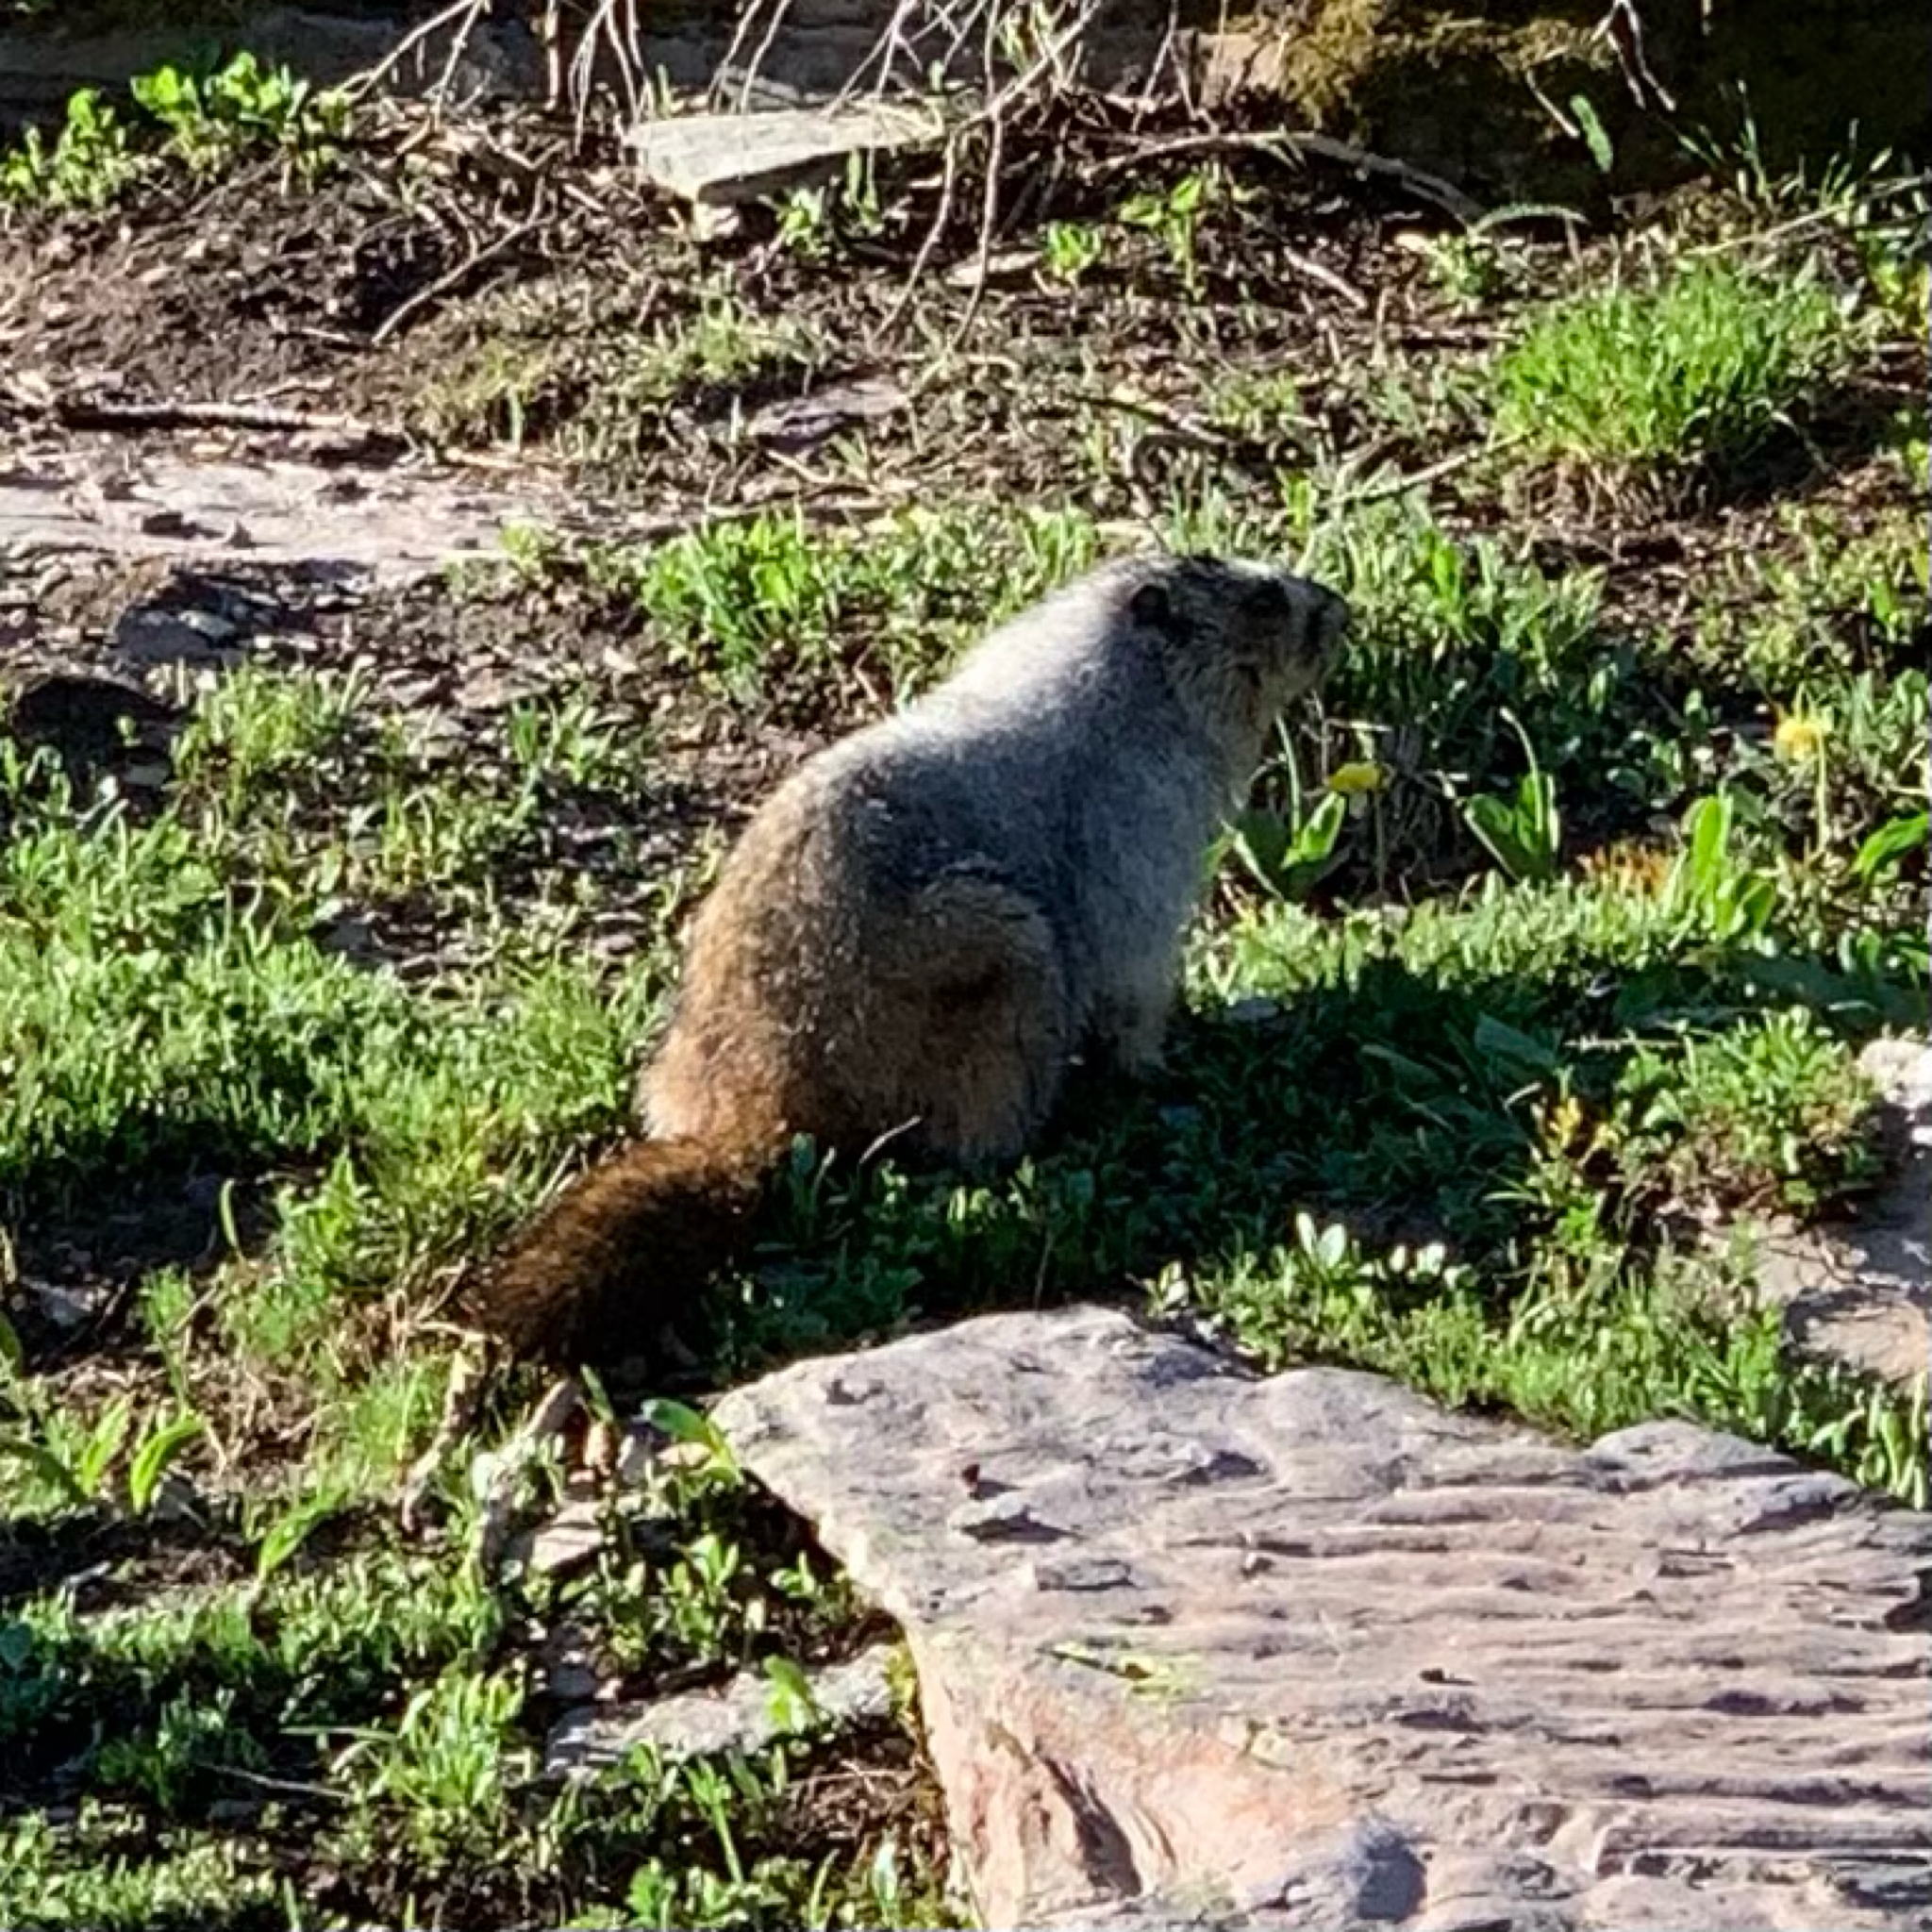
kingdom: Animalia
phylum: Chordata
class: Mammalia
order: Rodentia
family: Sciuridae
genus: Marmota
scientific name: Marmota caligata
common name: Hoary marmot
